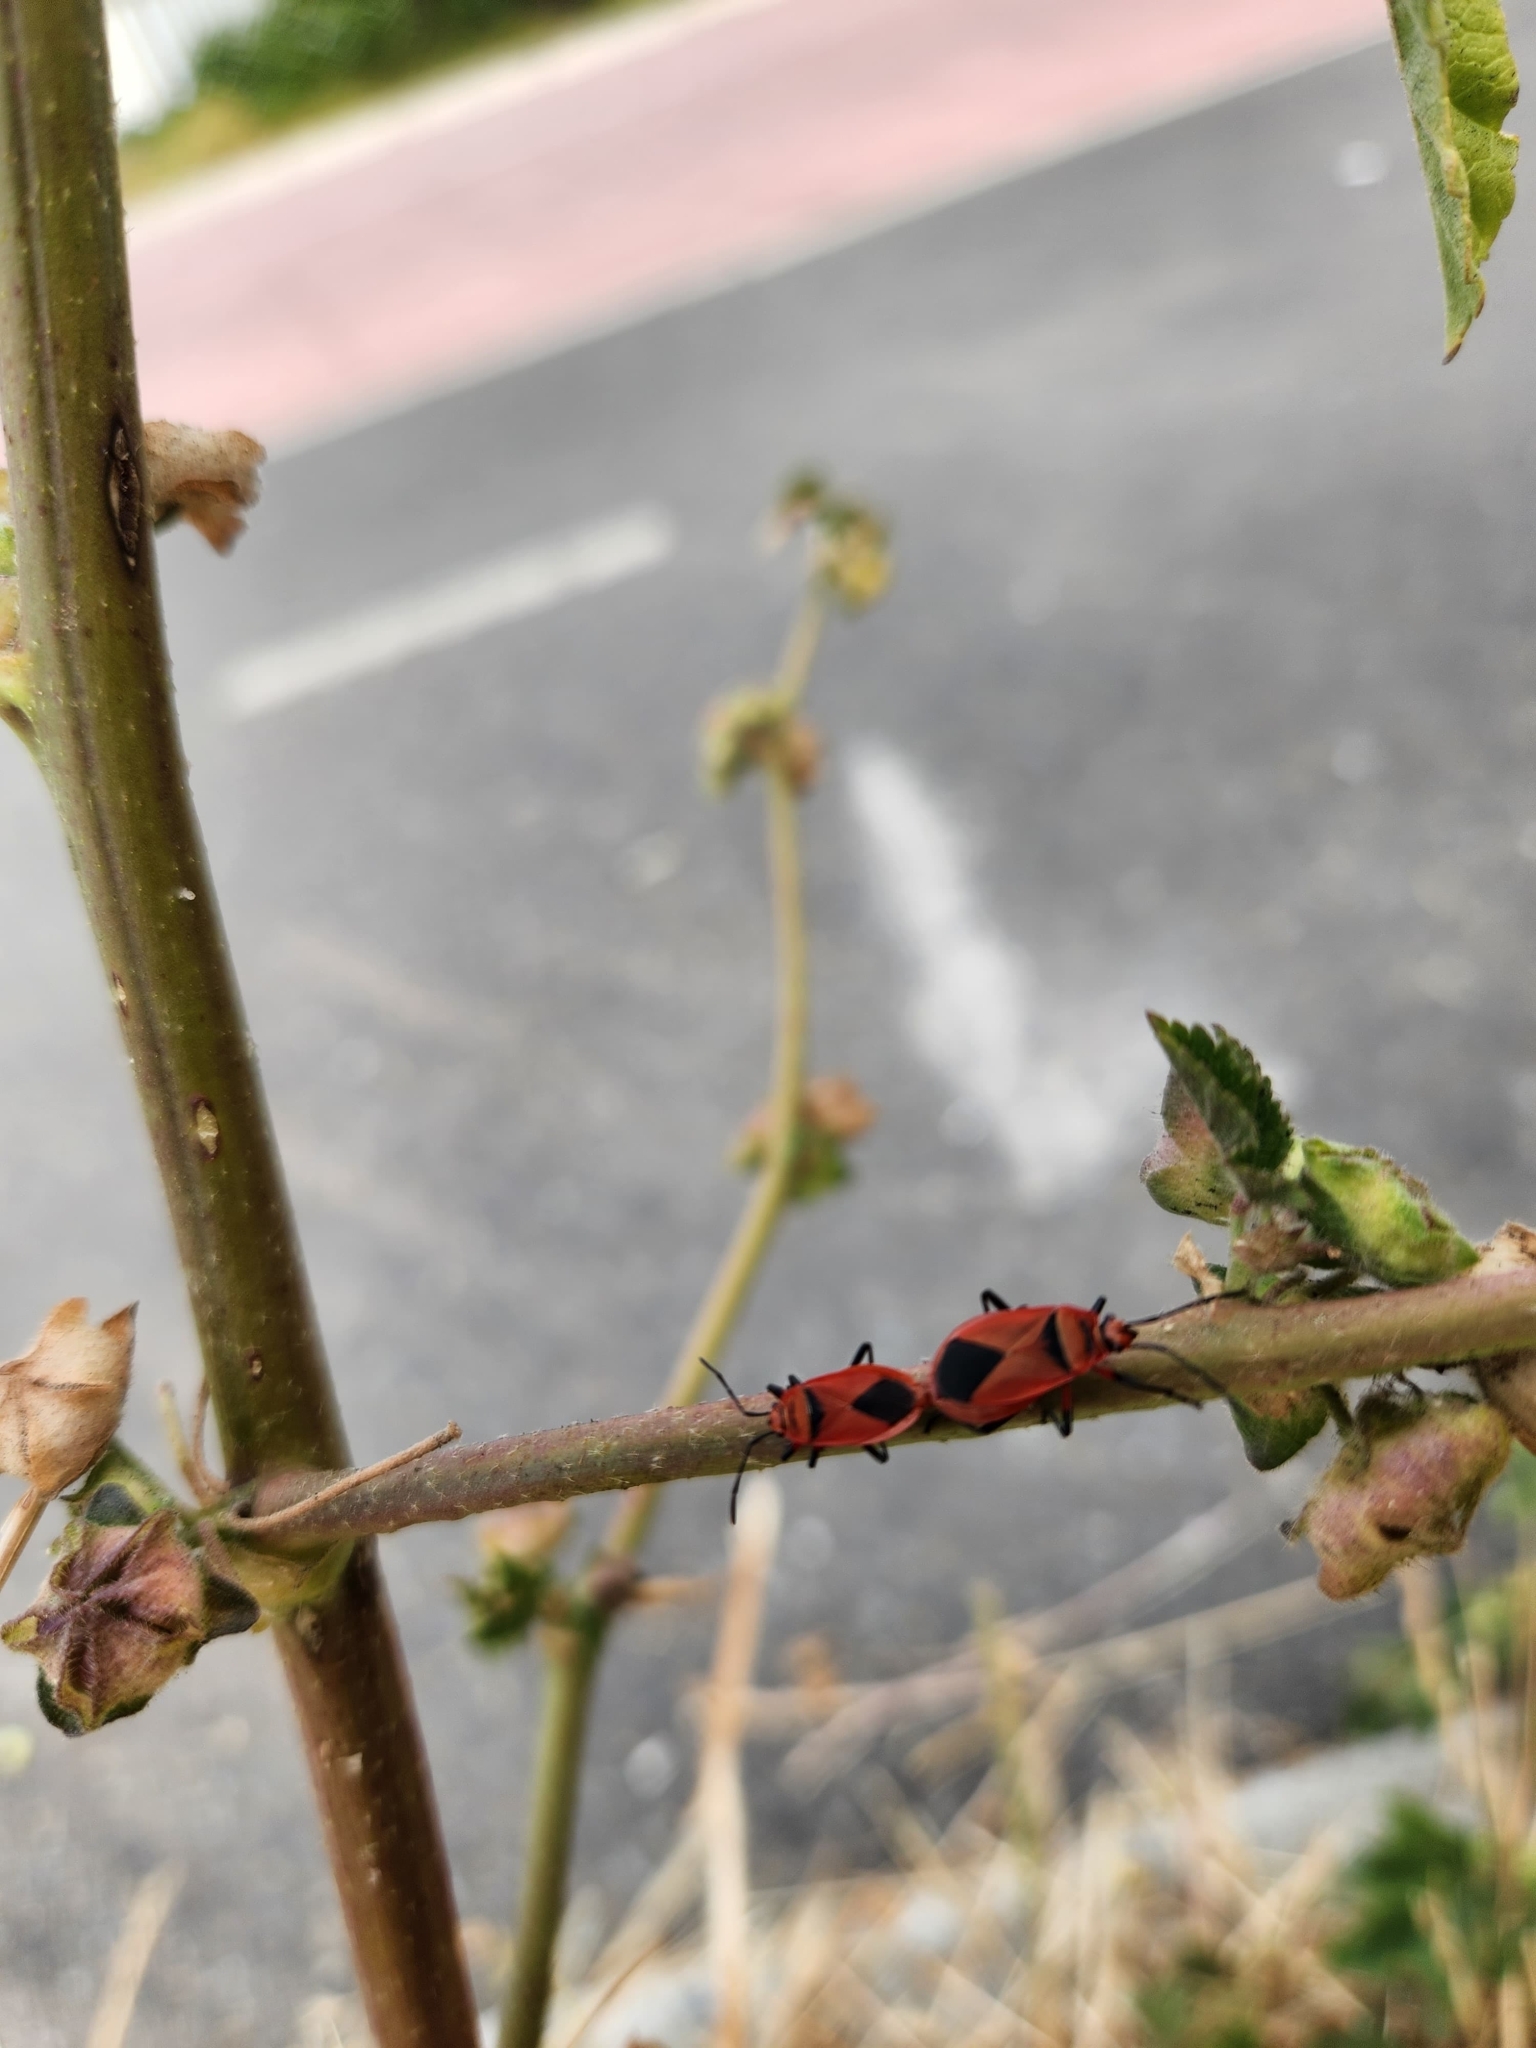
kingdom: Animalia
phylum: Arthropoda
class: Insecta
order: Hemiptera
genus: Cenaeus
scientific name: Cenaeus
